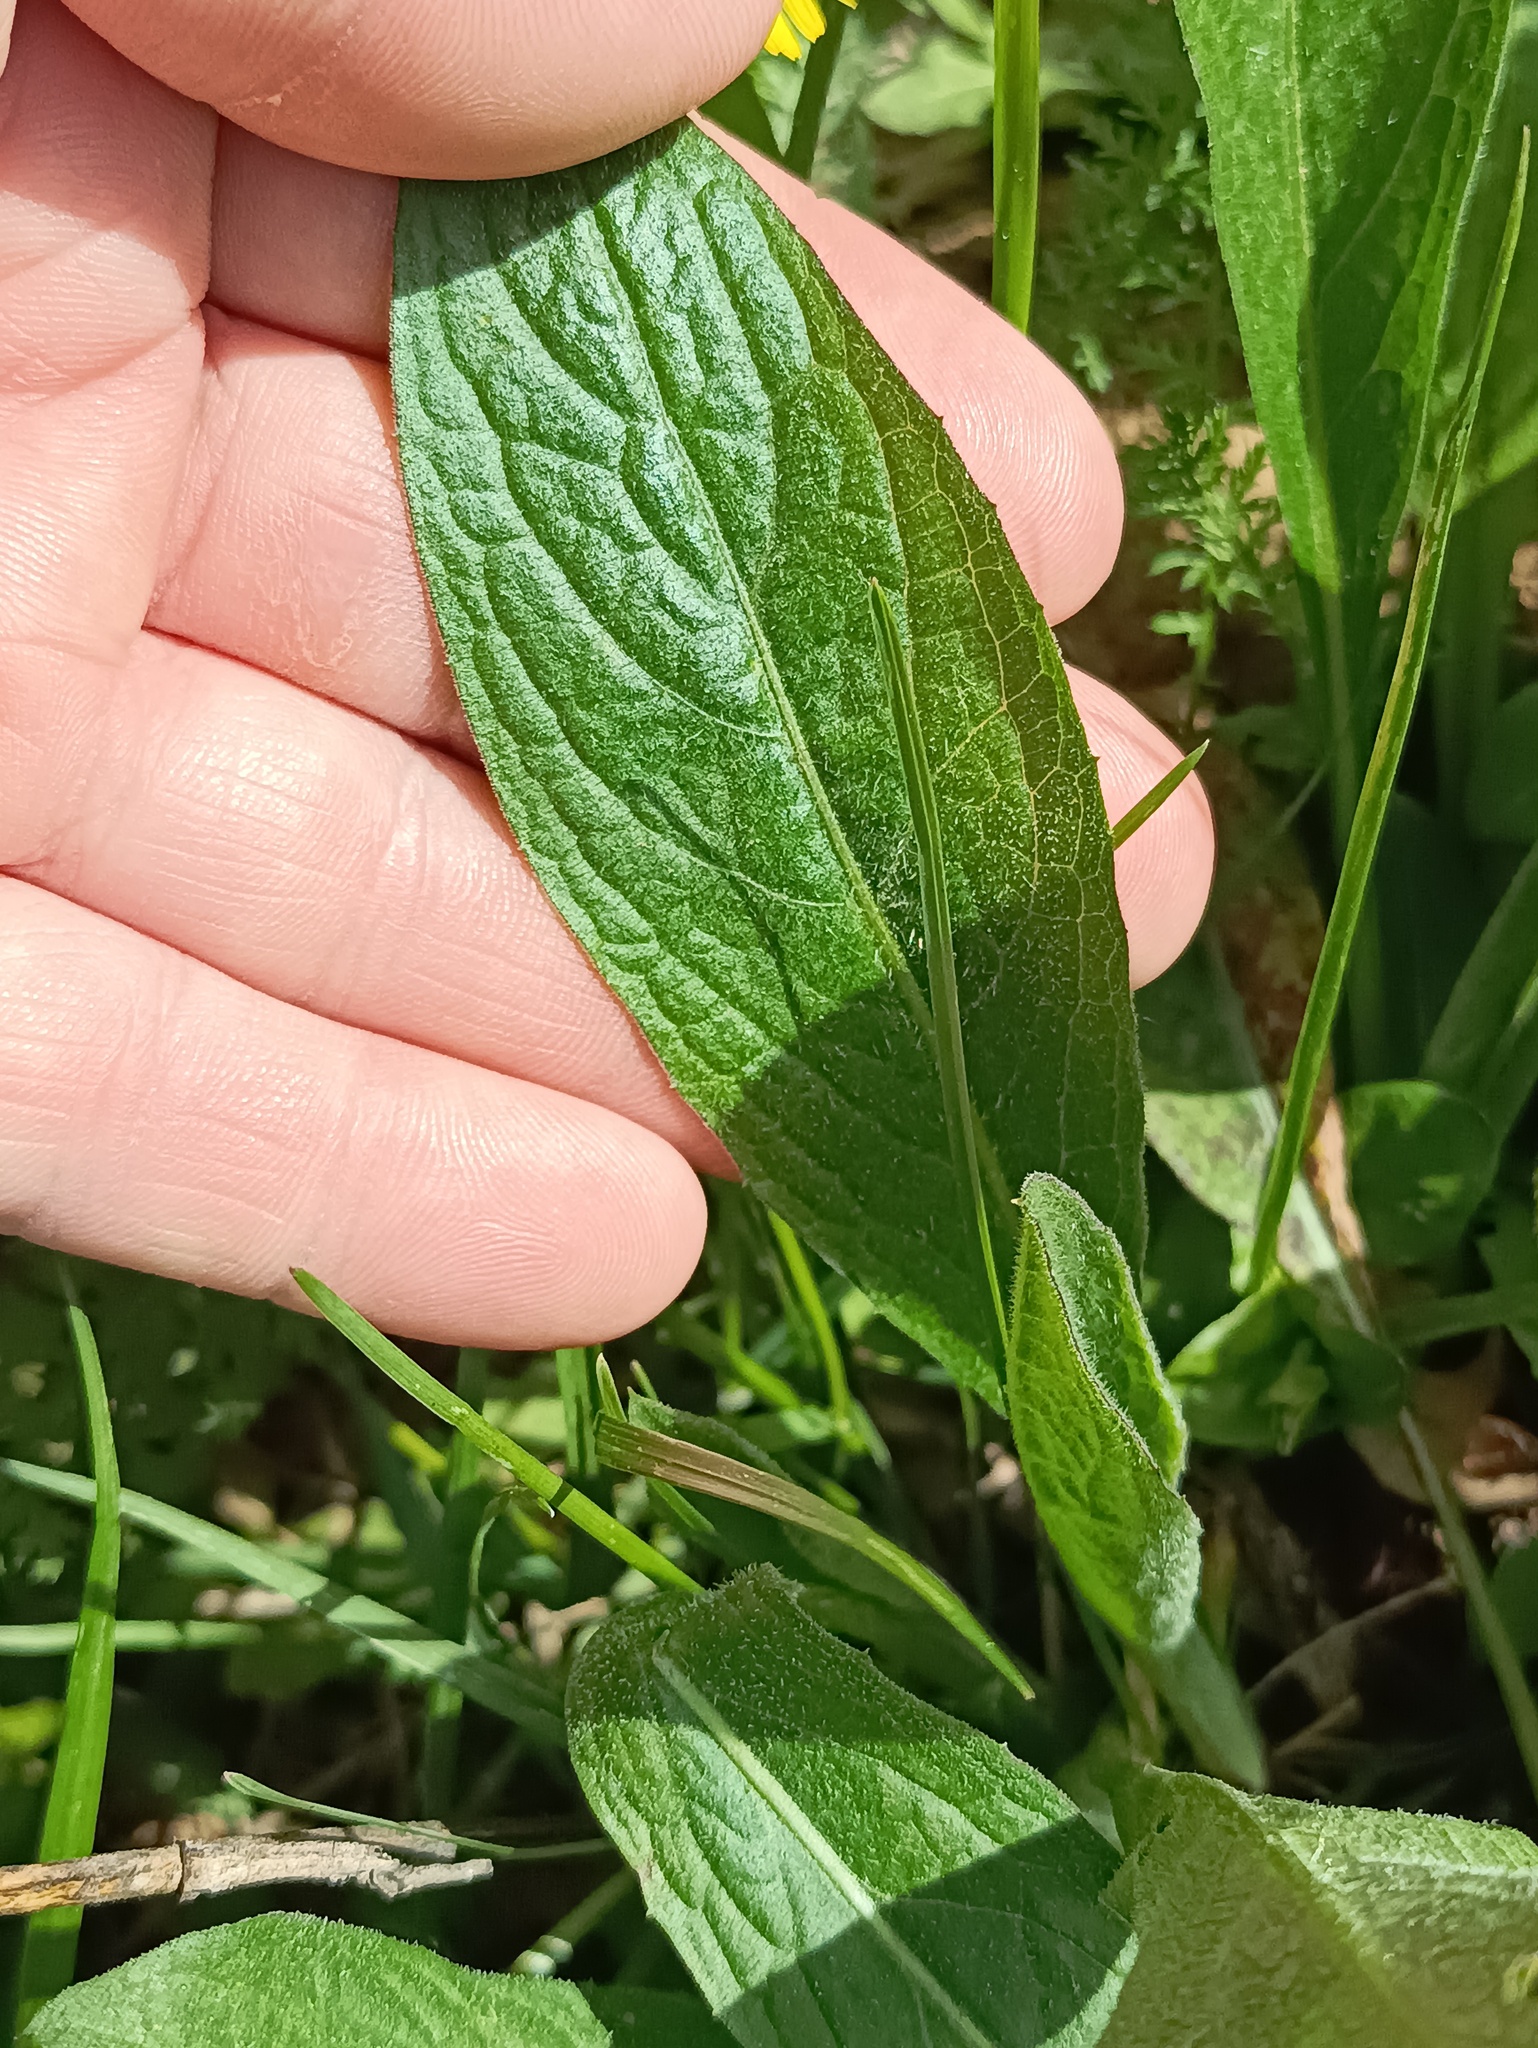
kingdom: Plantae
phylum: Tracheophyta
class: Magnoliopsida
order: Asterales
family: Asteraceae
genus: Centaurea
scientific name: Centaurea jacea
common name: Brown knapweed
